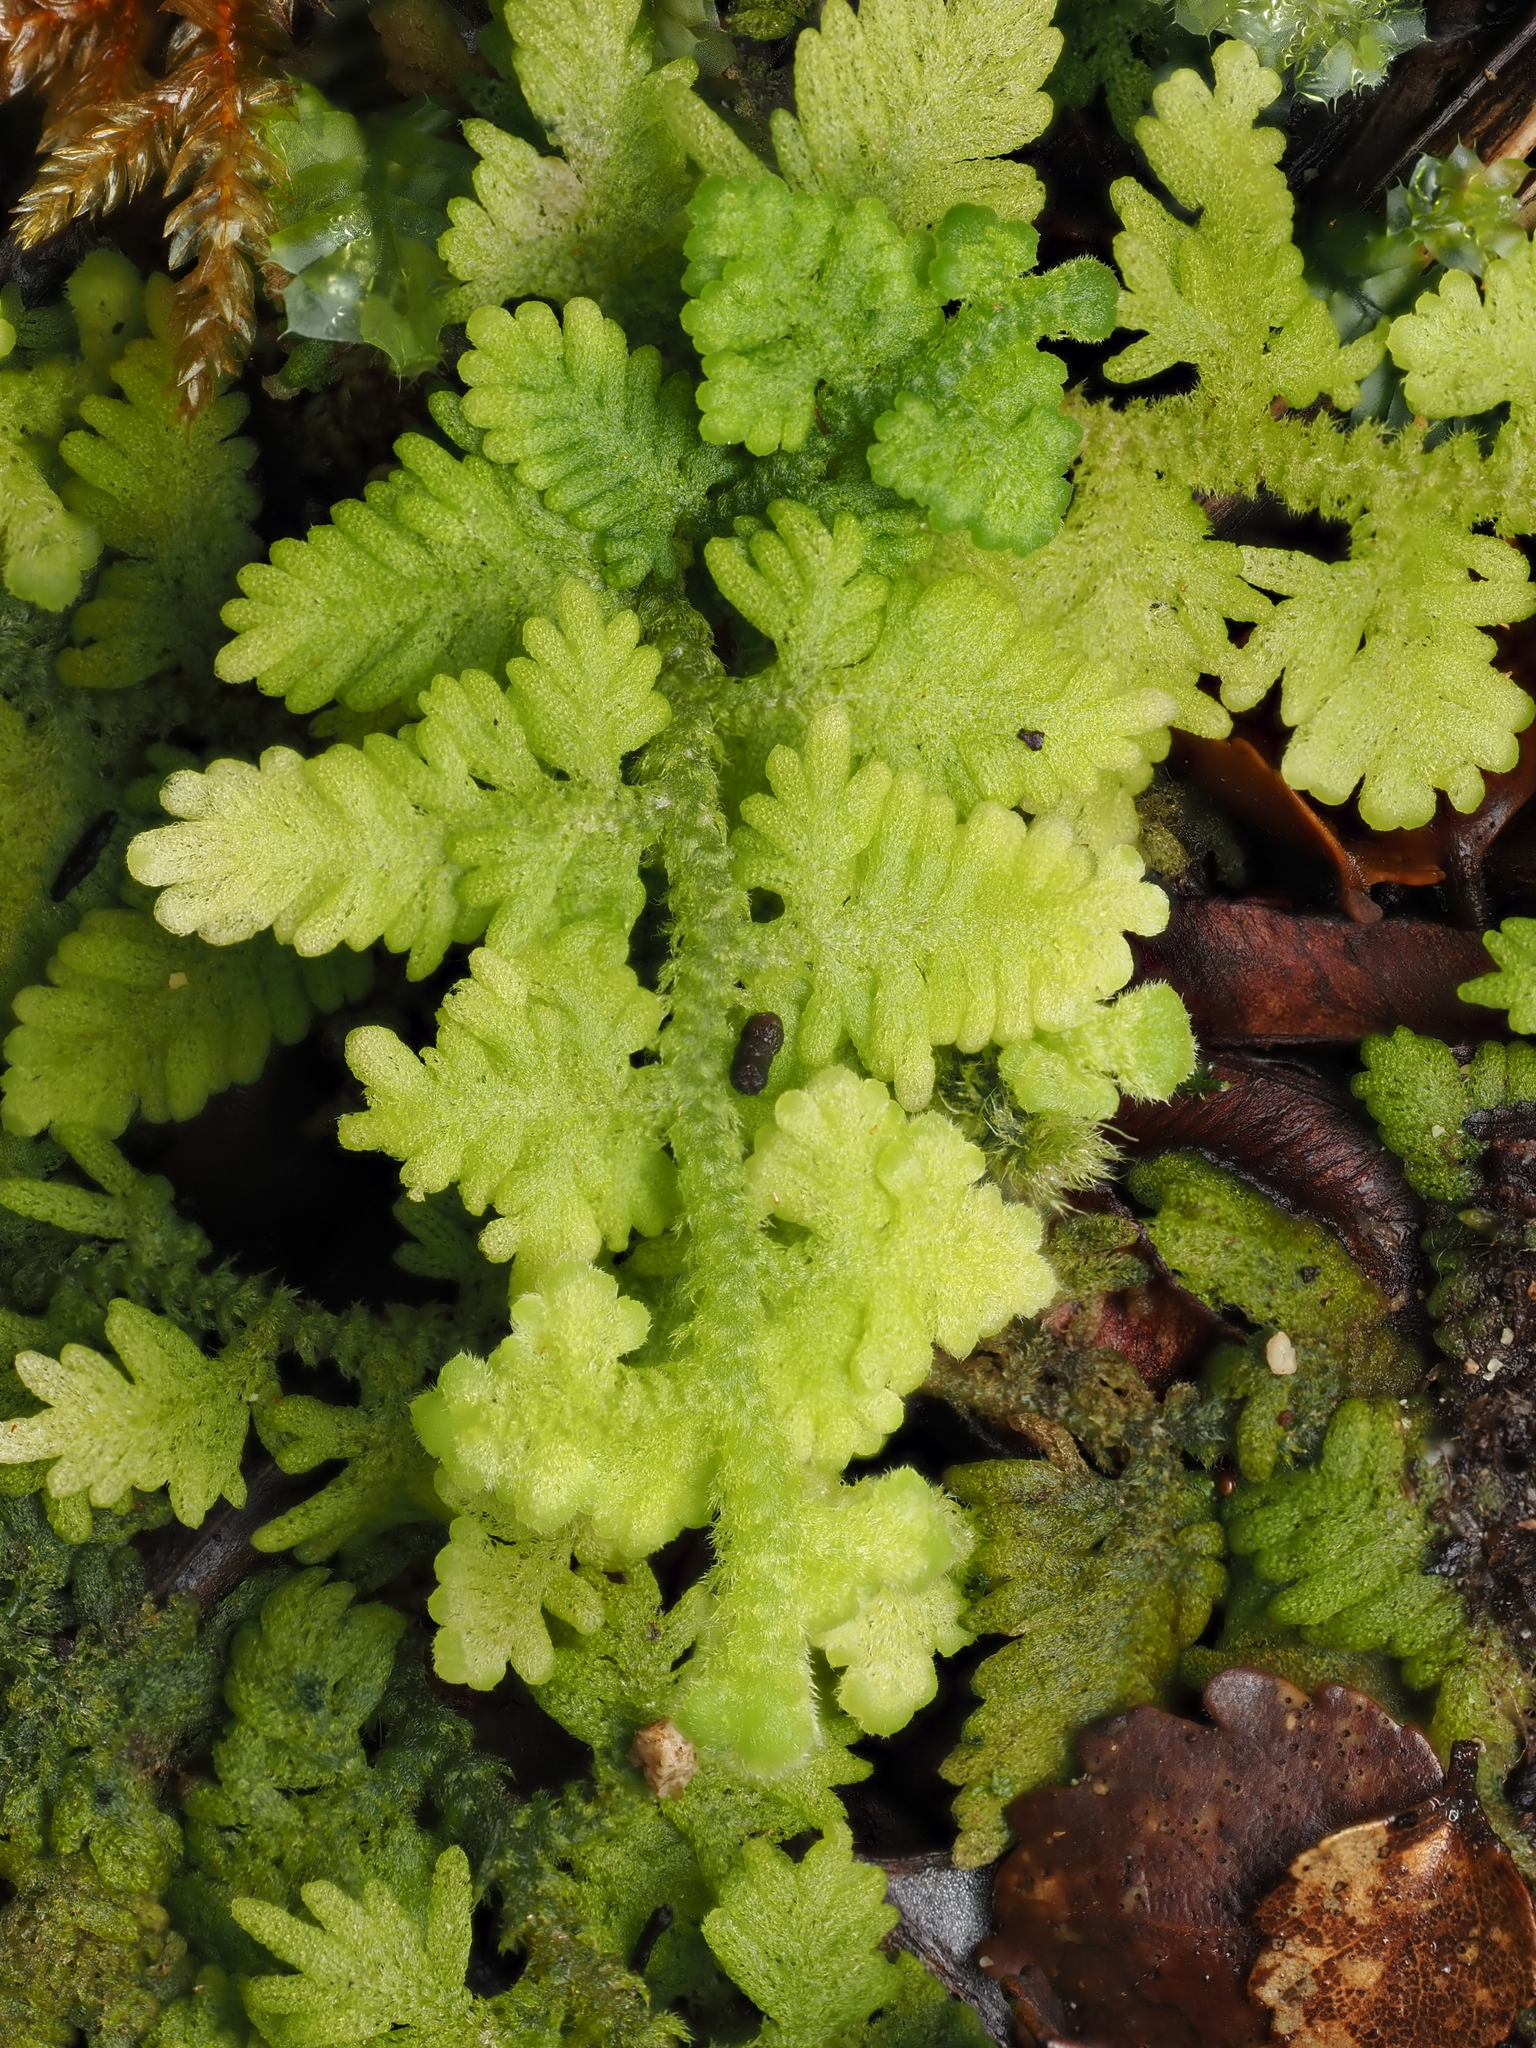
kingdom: Plantae
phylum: Marchantiophyta
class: Jungermanniopsida
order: Jungermanniales
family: Trichocoleaceae
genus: Trichocolea
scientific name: Trichocolea mollissima
